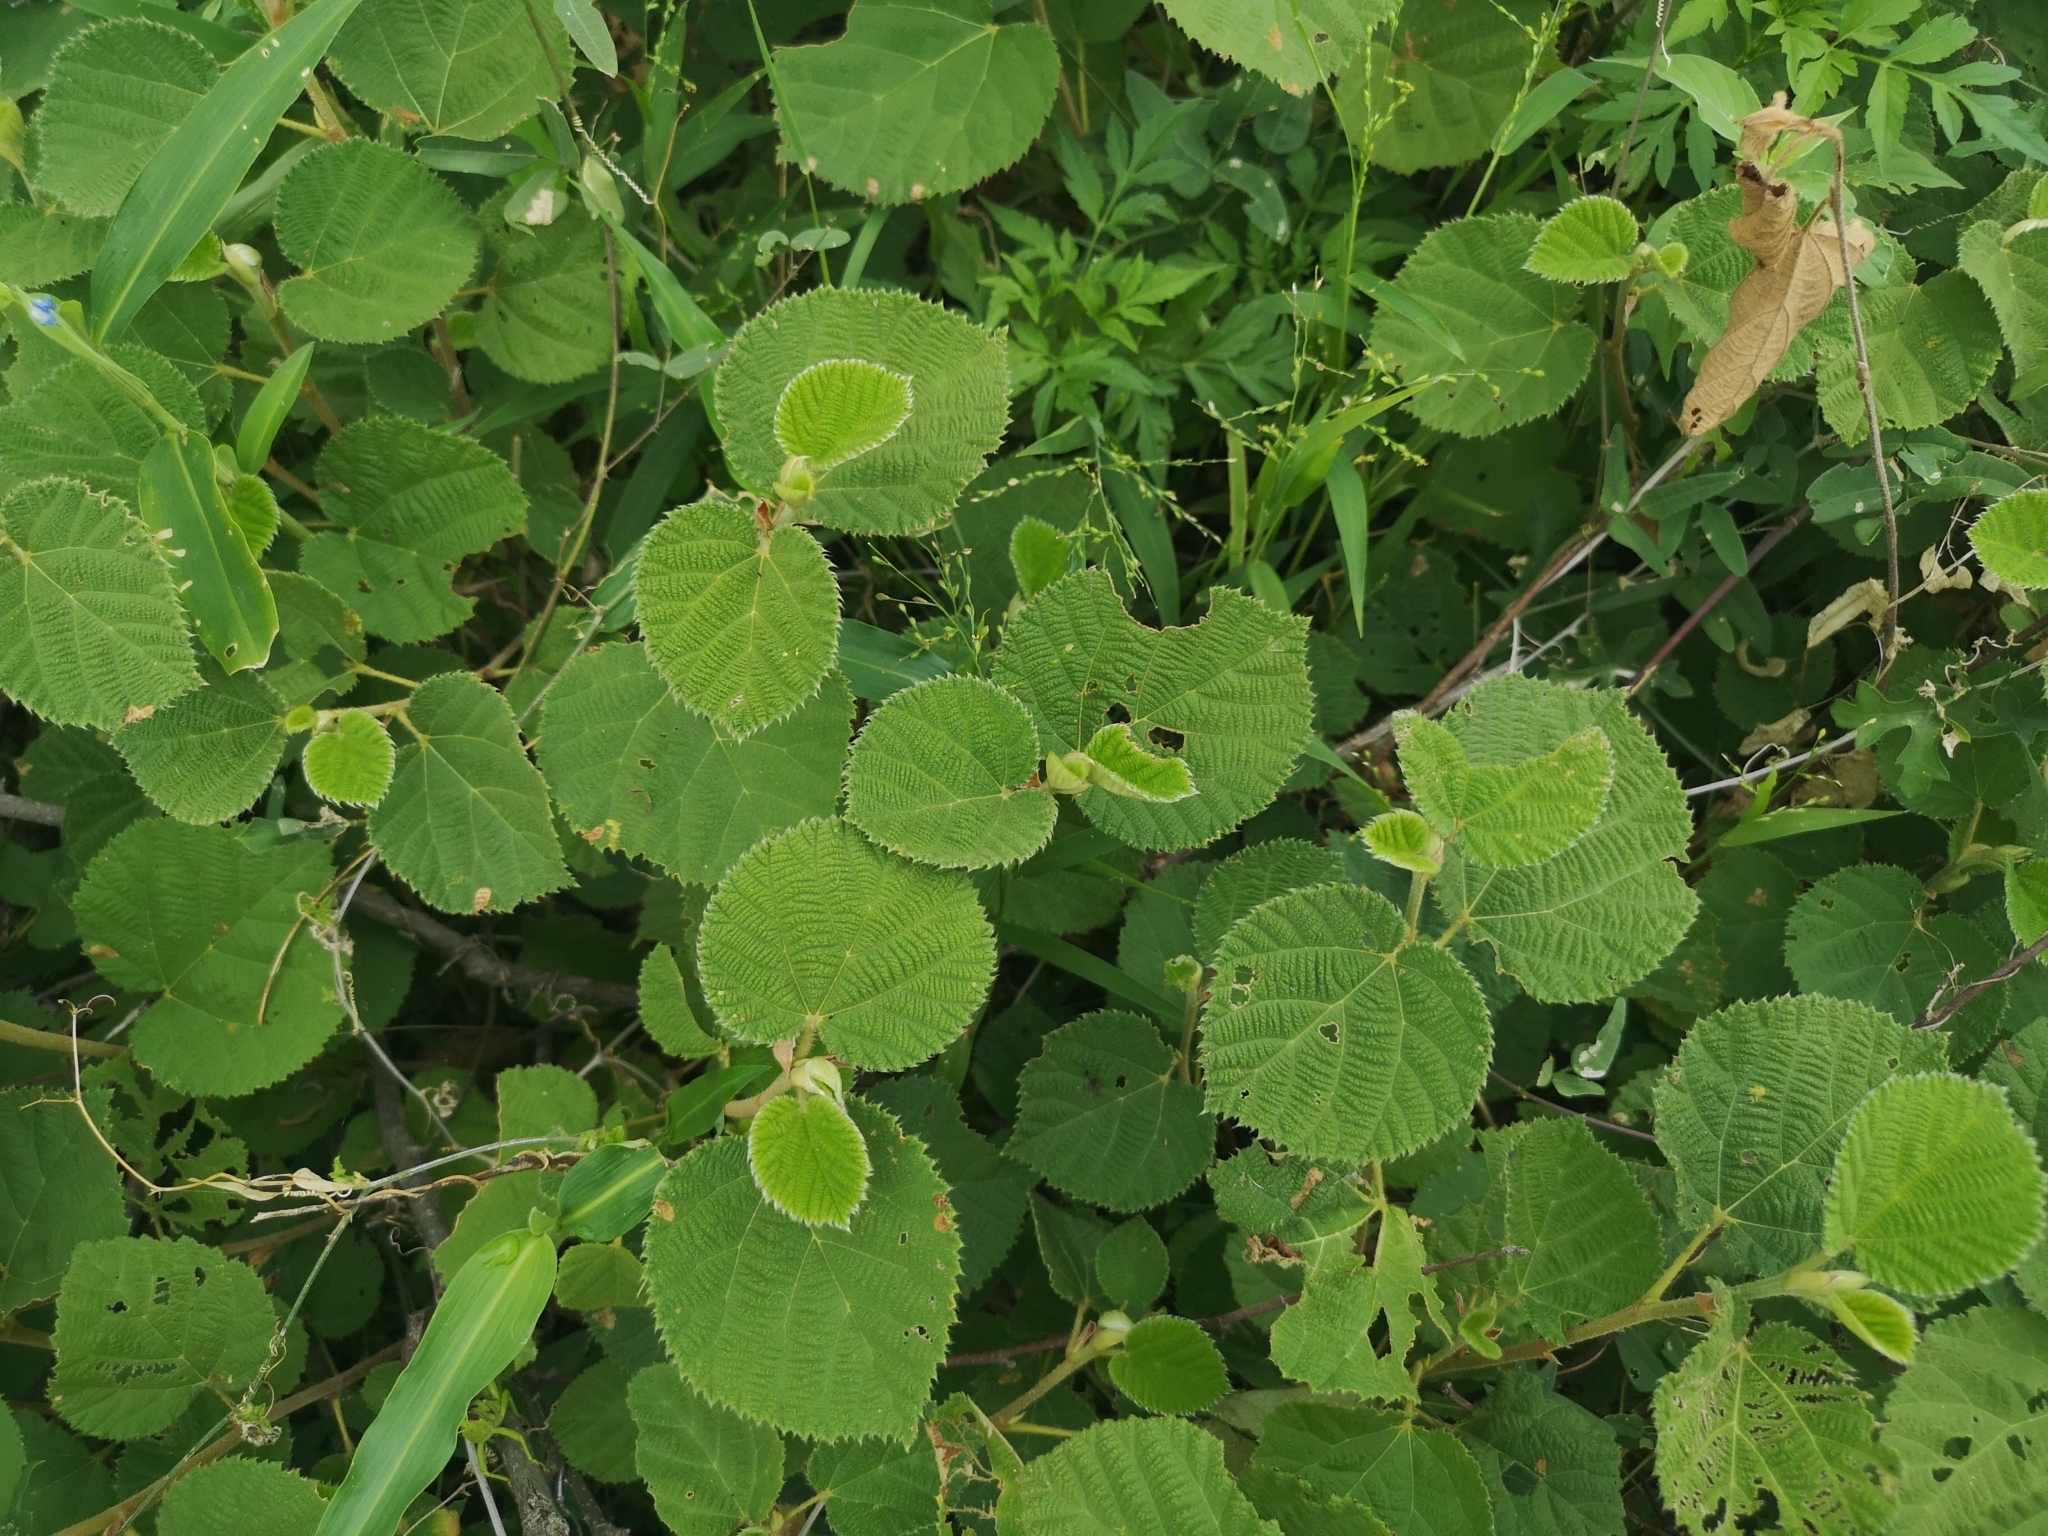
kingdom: Plantae
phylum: Tracheophyta
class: Magnoliopsida
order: Malvales
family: Malvaceae
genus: Grewia
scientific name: Grewia villosa
